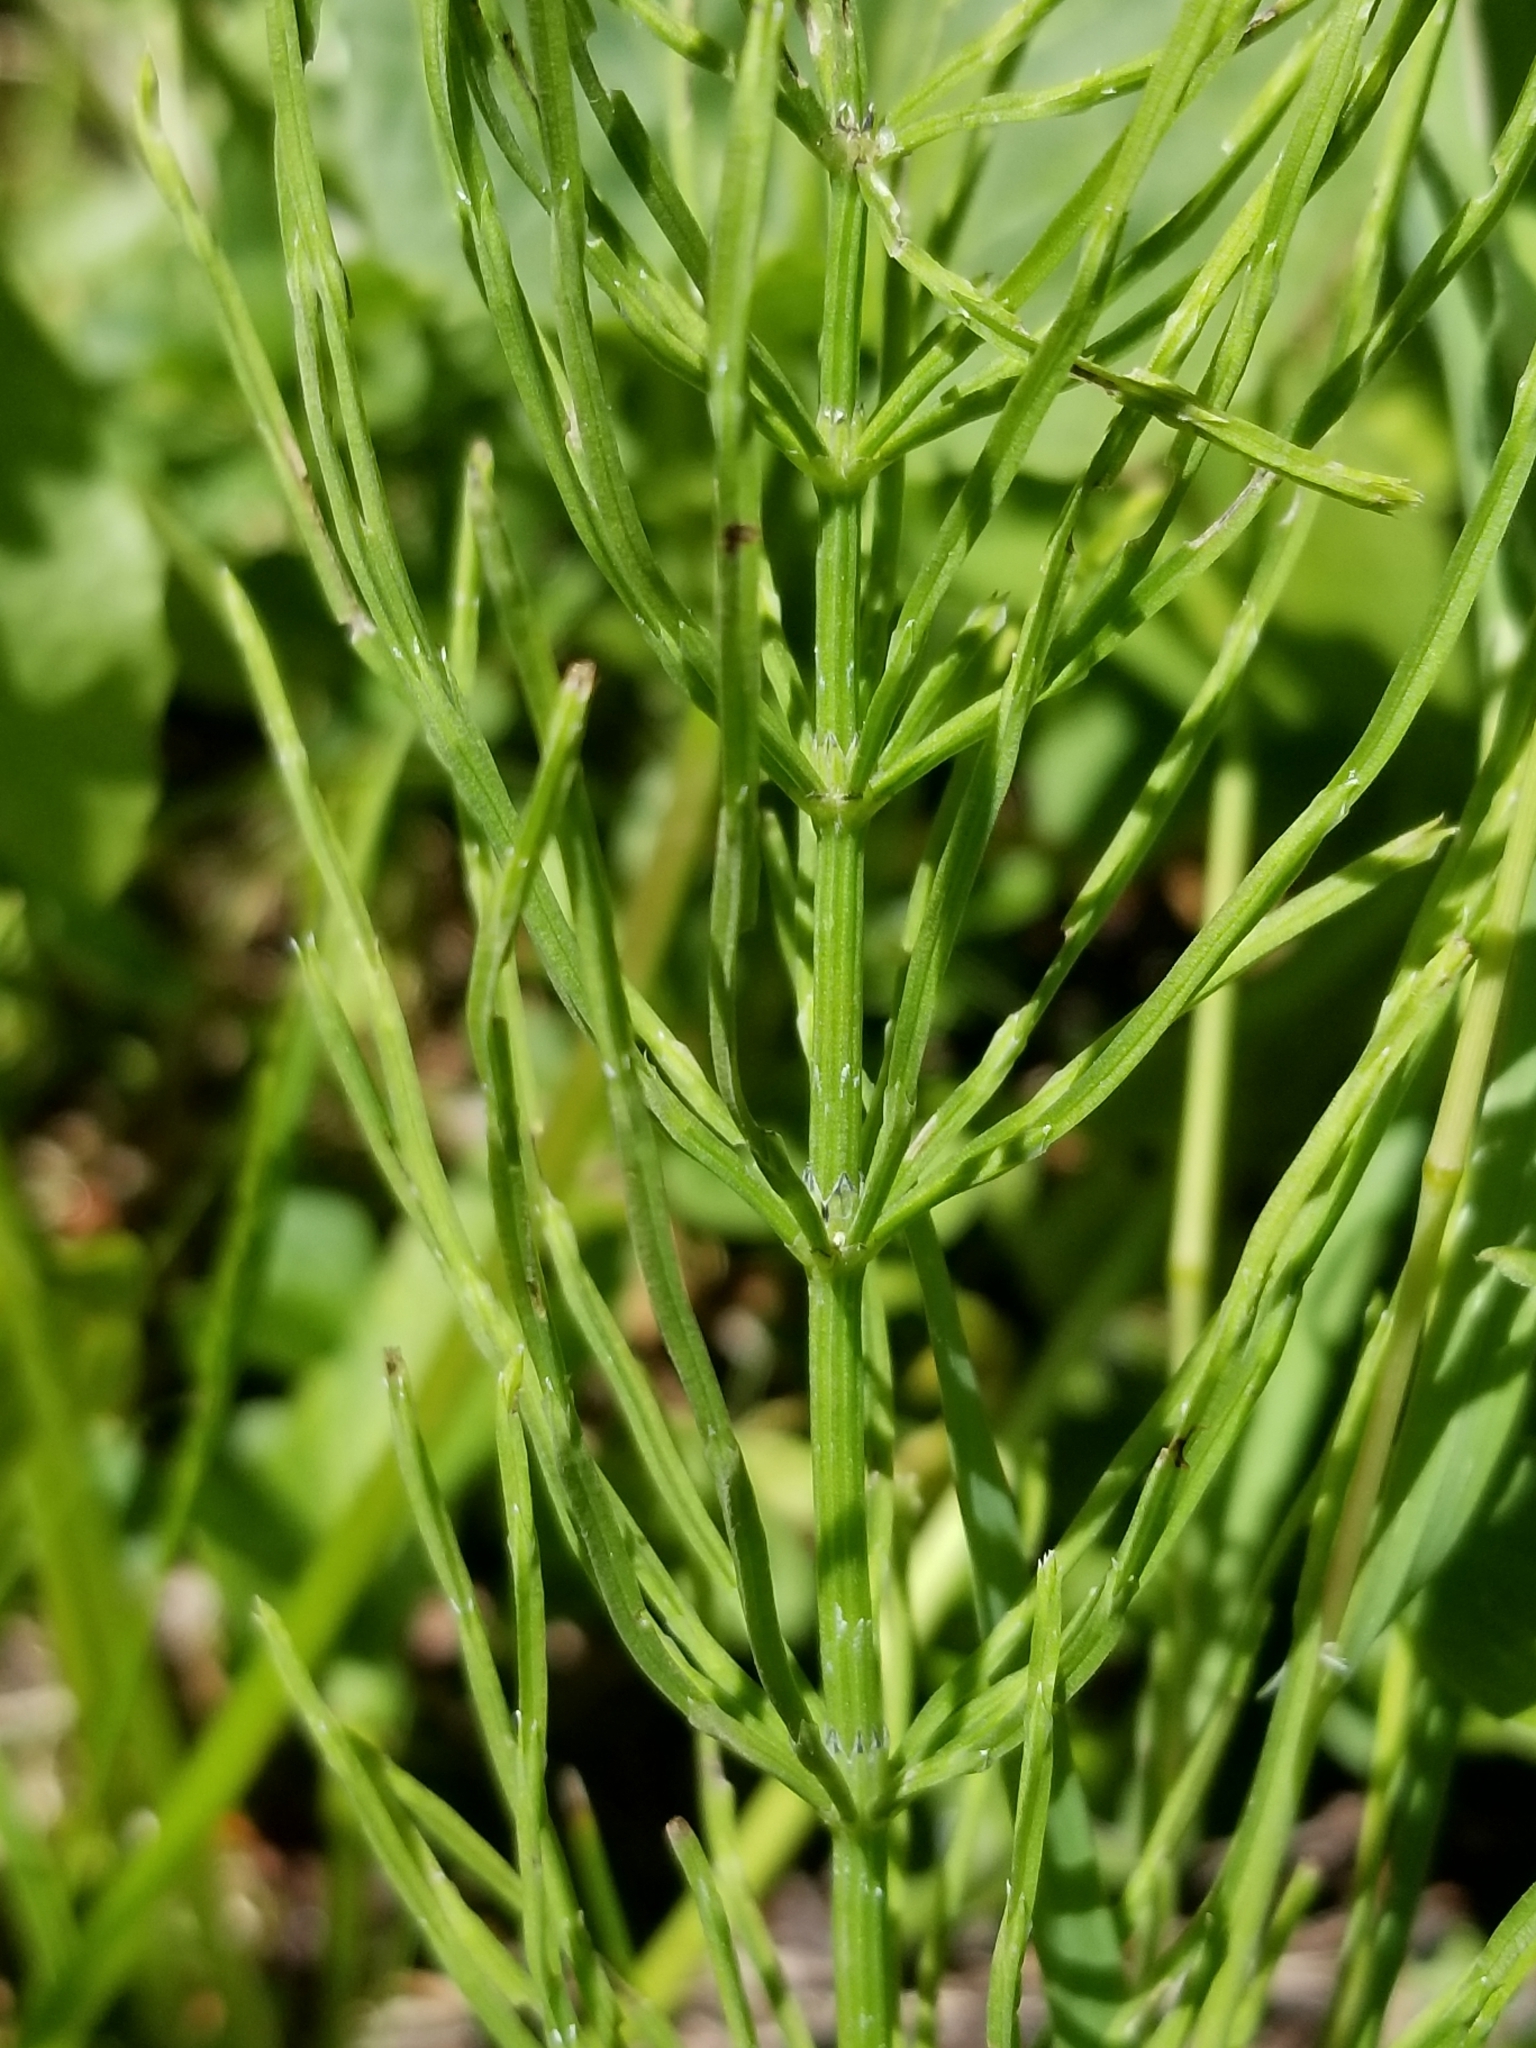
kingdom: Plantae
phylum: Tracheophyta
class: Polypodiopsida
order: Equisetales
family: Equisetaceae
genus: Equisetum
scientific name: Equisetum arvense
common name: Field horsetail
